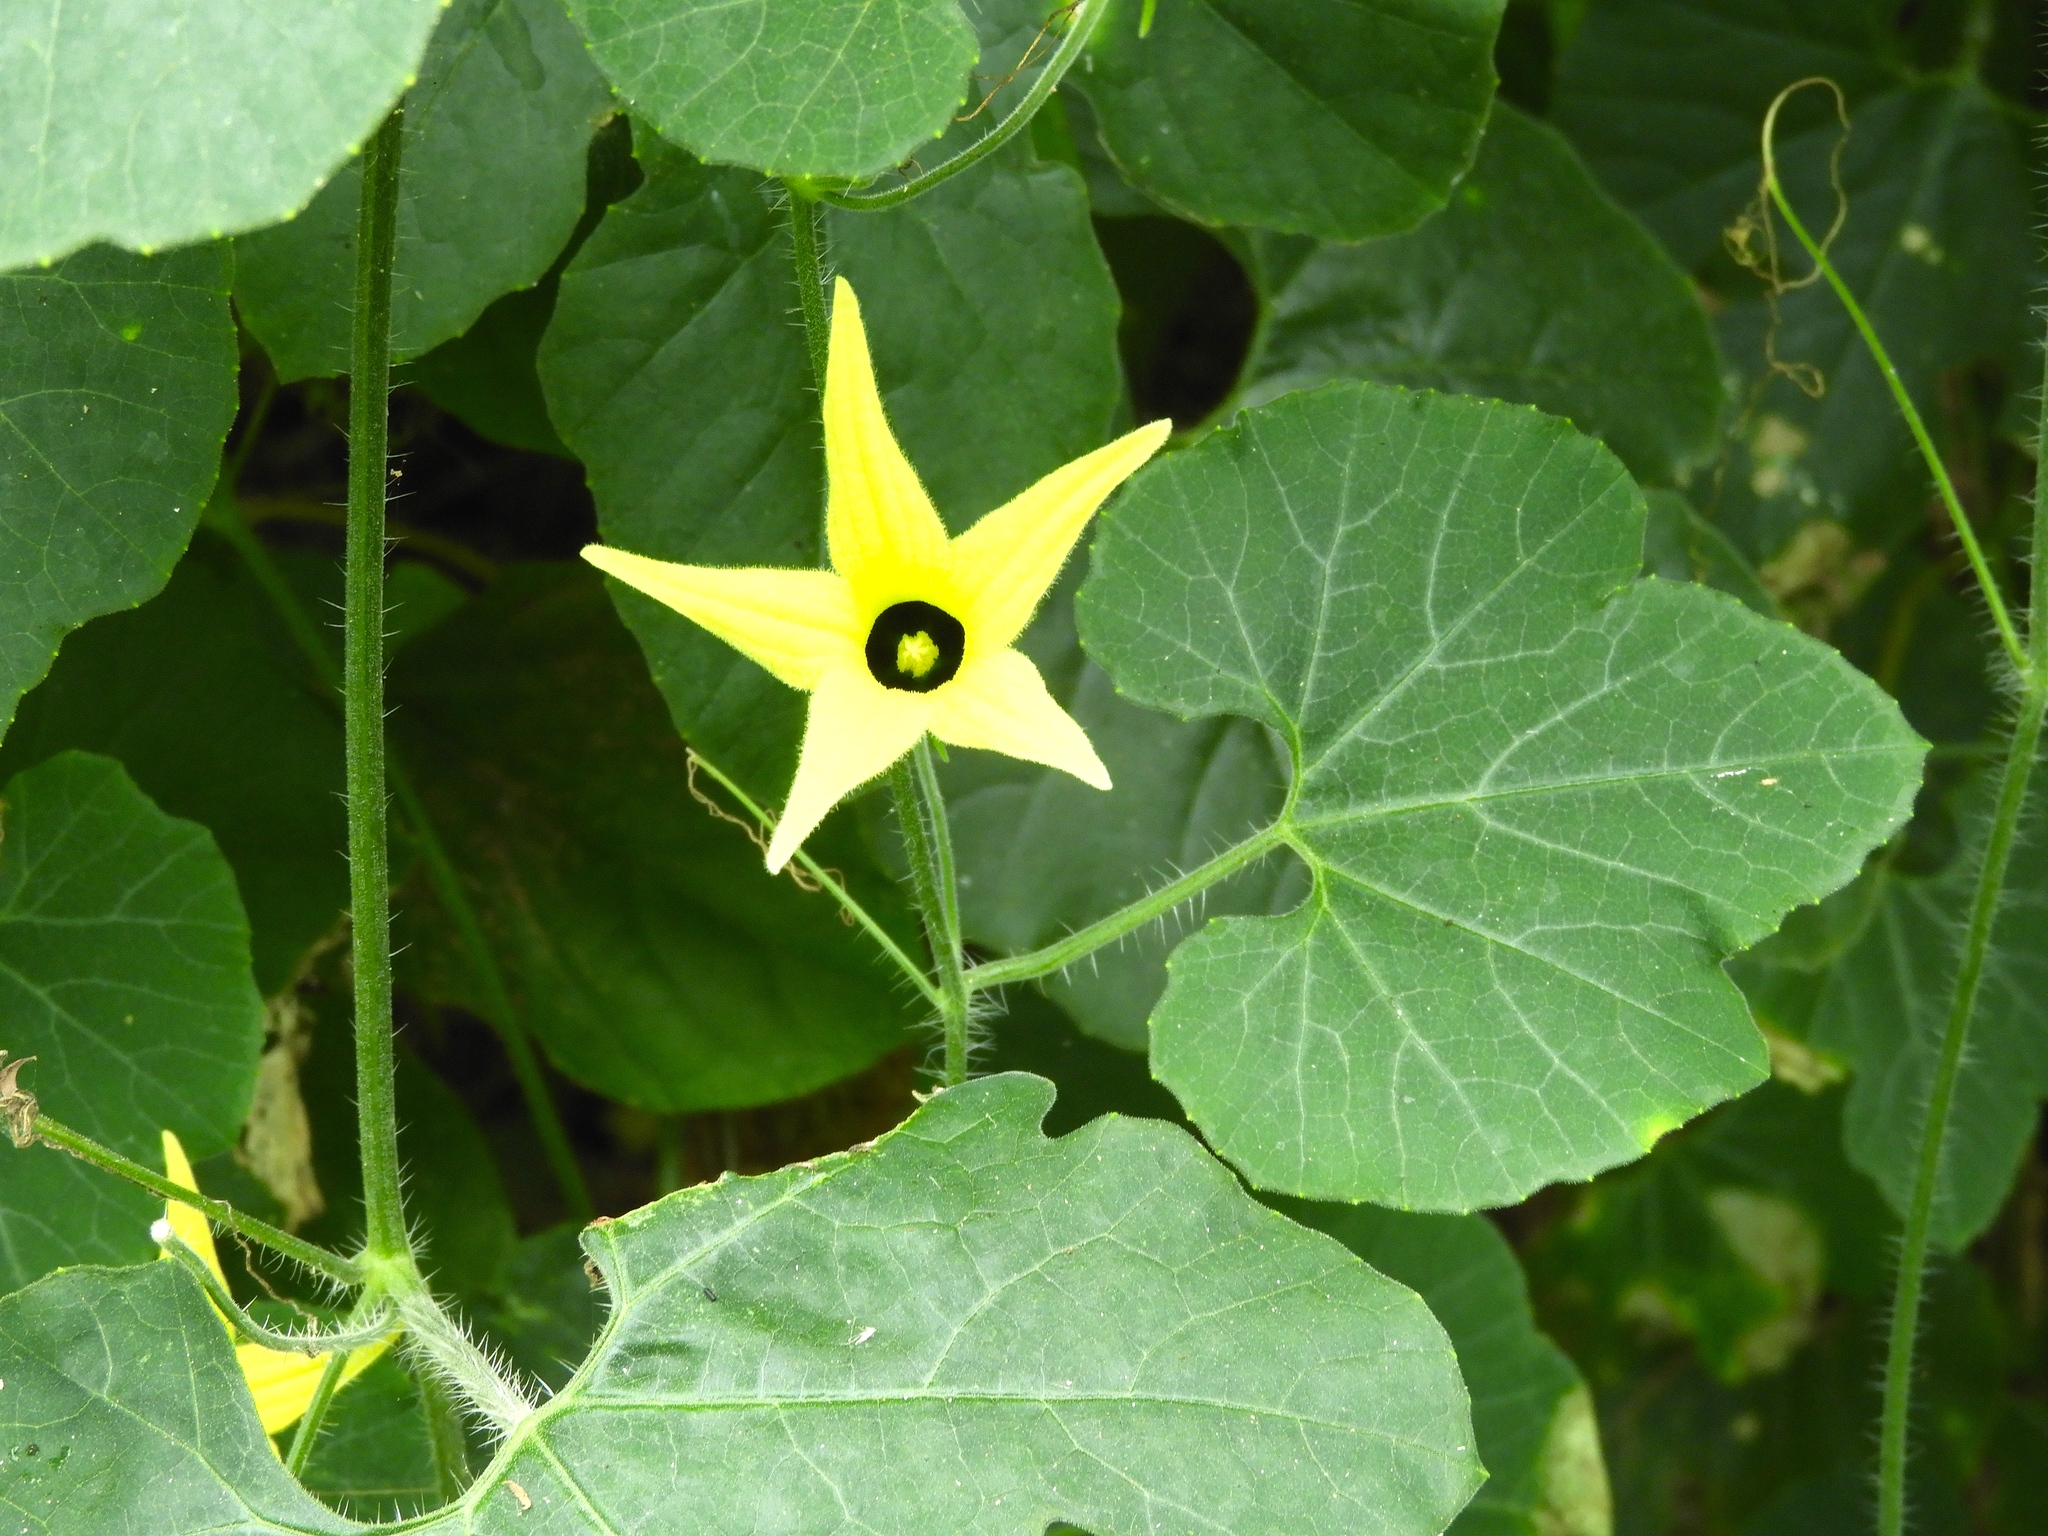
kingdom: Plantae
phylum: Tracheophyta
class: Magnoliopsida
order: Cucurbitales
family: Cucurbitaceae
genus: Schizocarpum
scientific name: Schizocarpum
